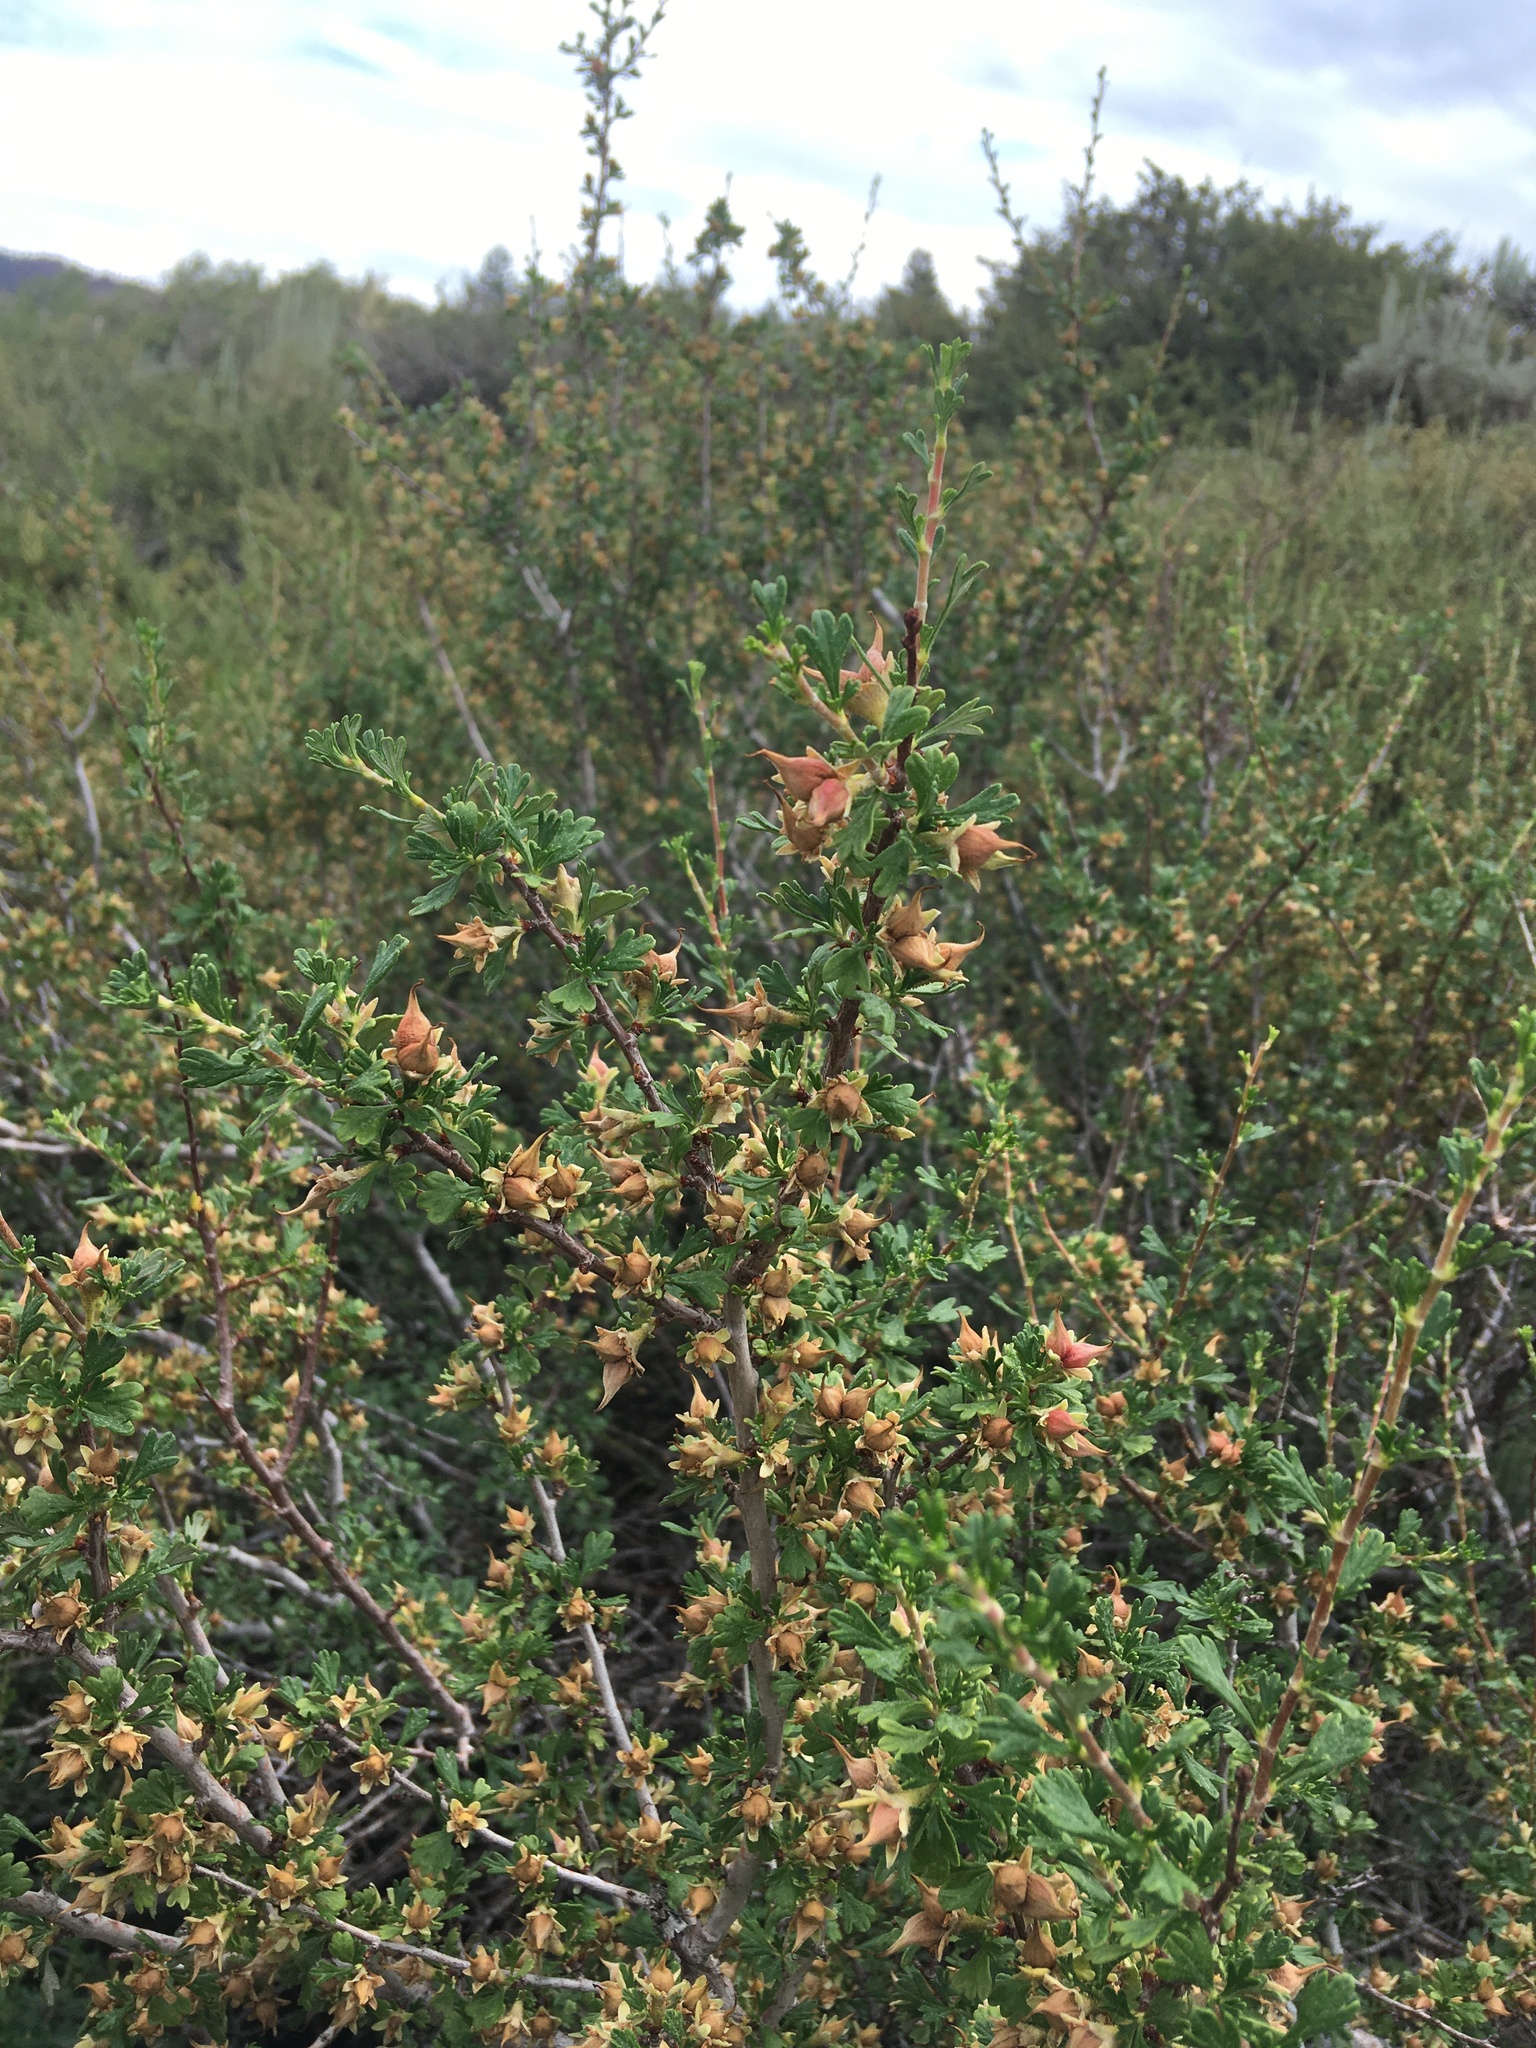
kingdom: Plantae
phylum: Tracheophyta
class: Magnoliopsida
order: Rosales
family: Rosaceae
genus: Purshia
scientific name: Purshia tridentata
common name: Antelope bitterbrush
